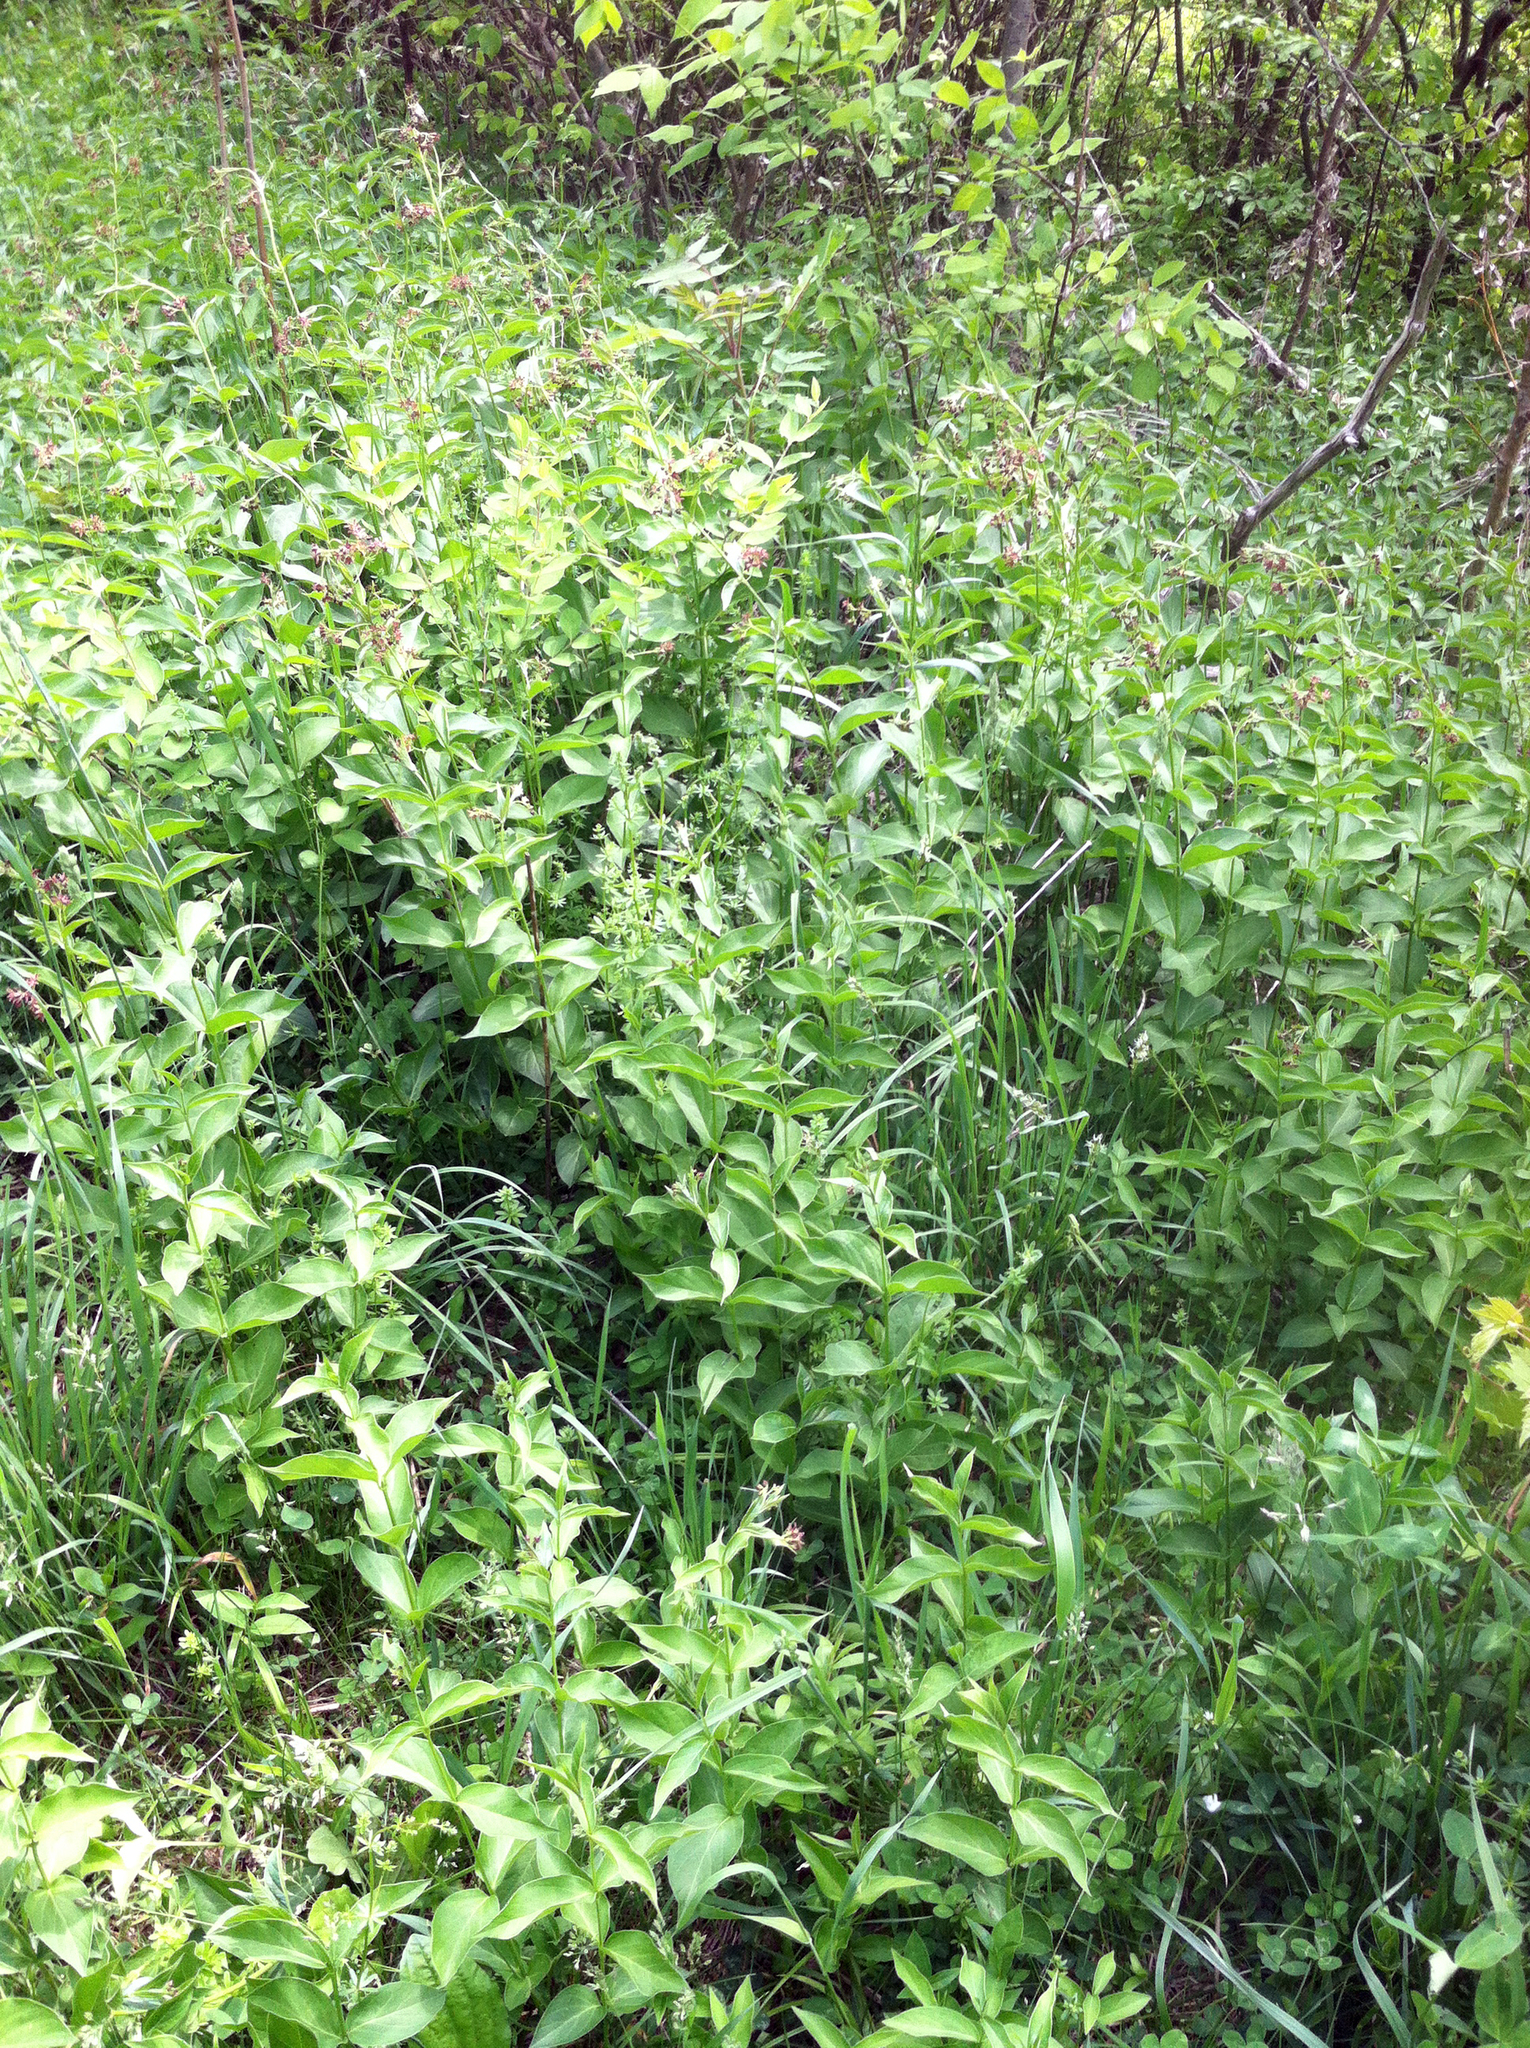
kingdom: Plantae
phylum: Tracheophyta
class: Magnoliopsida
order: Gentianales
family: Apocynaceae
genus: Vincetoxicum
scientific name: Vincetoxicum rossicum
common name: Dog-strangling vine
